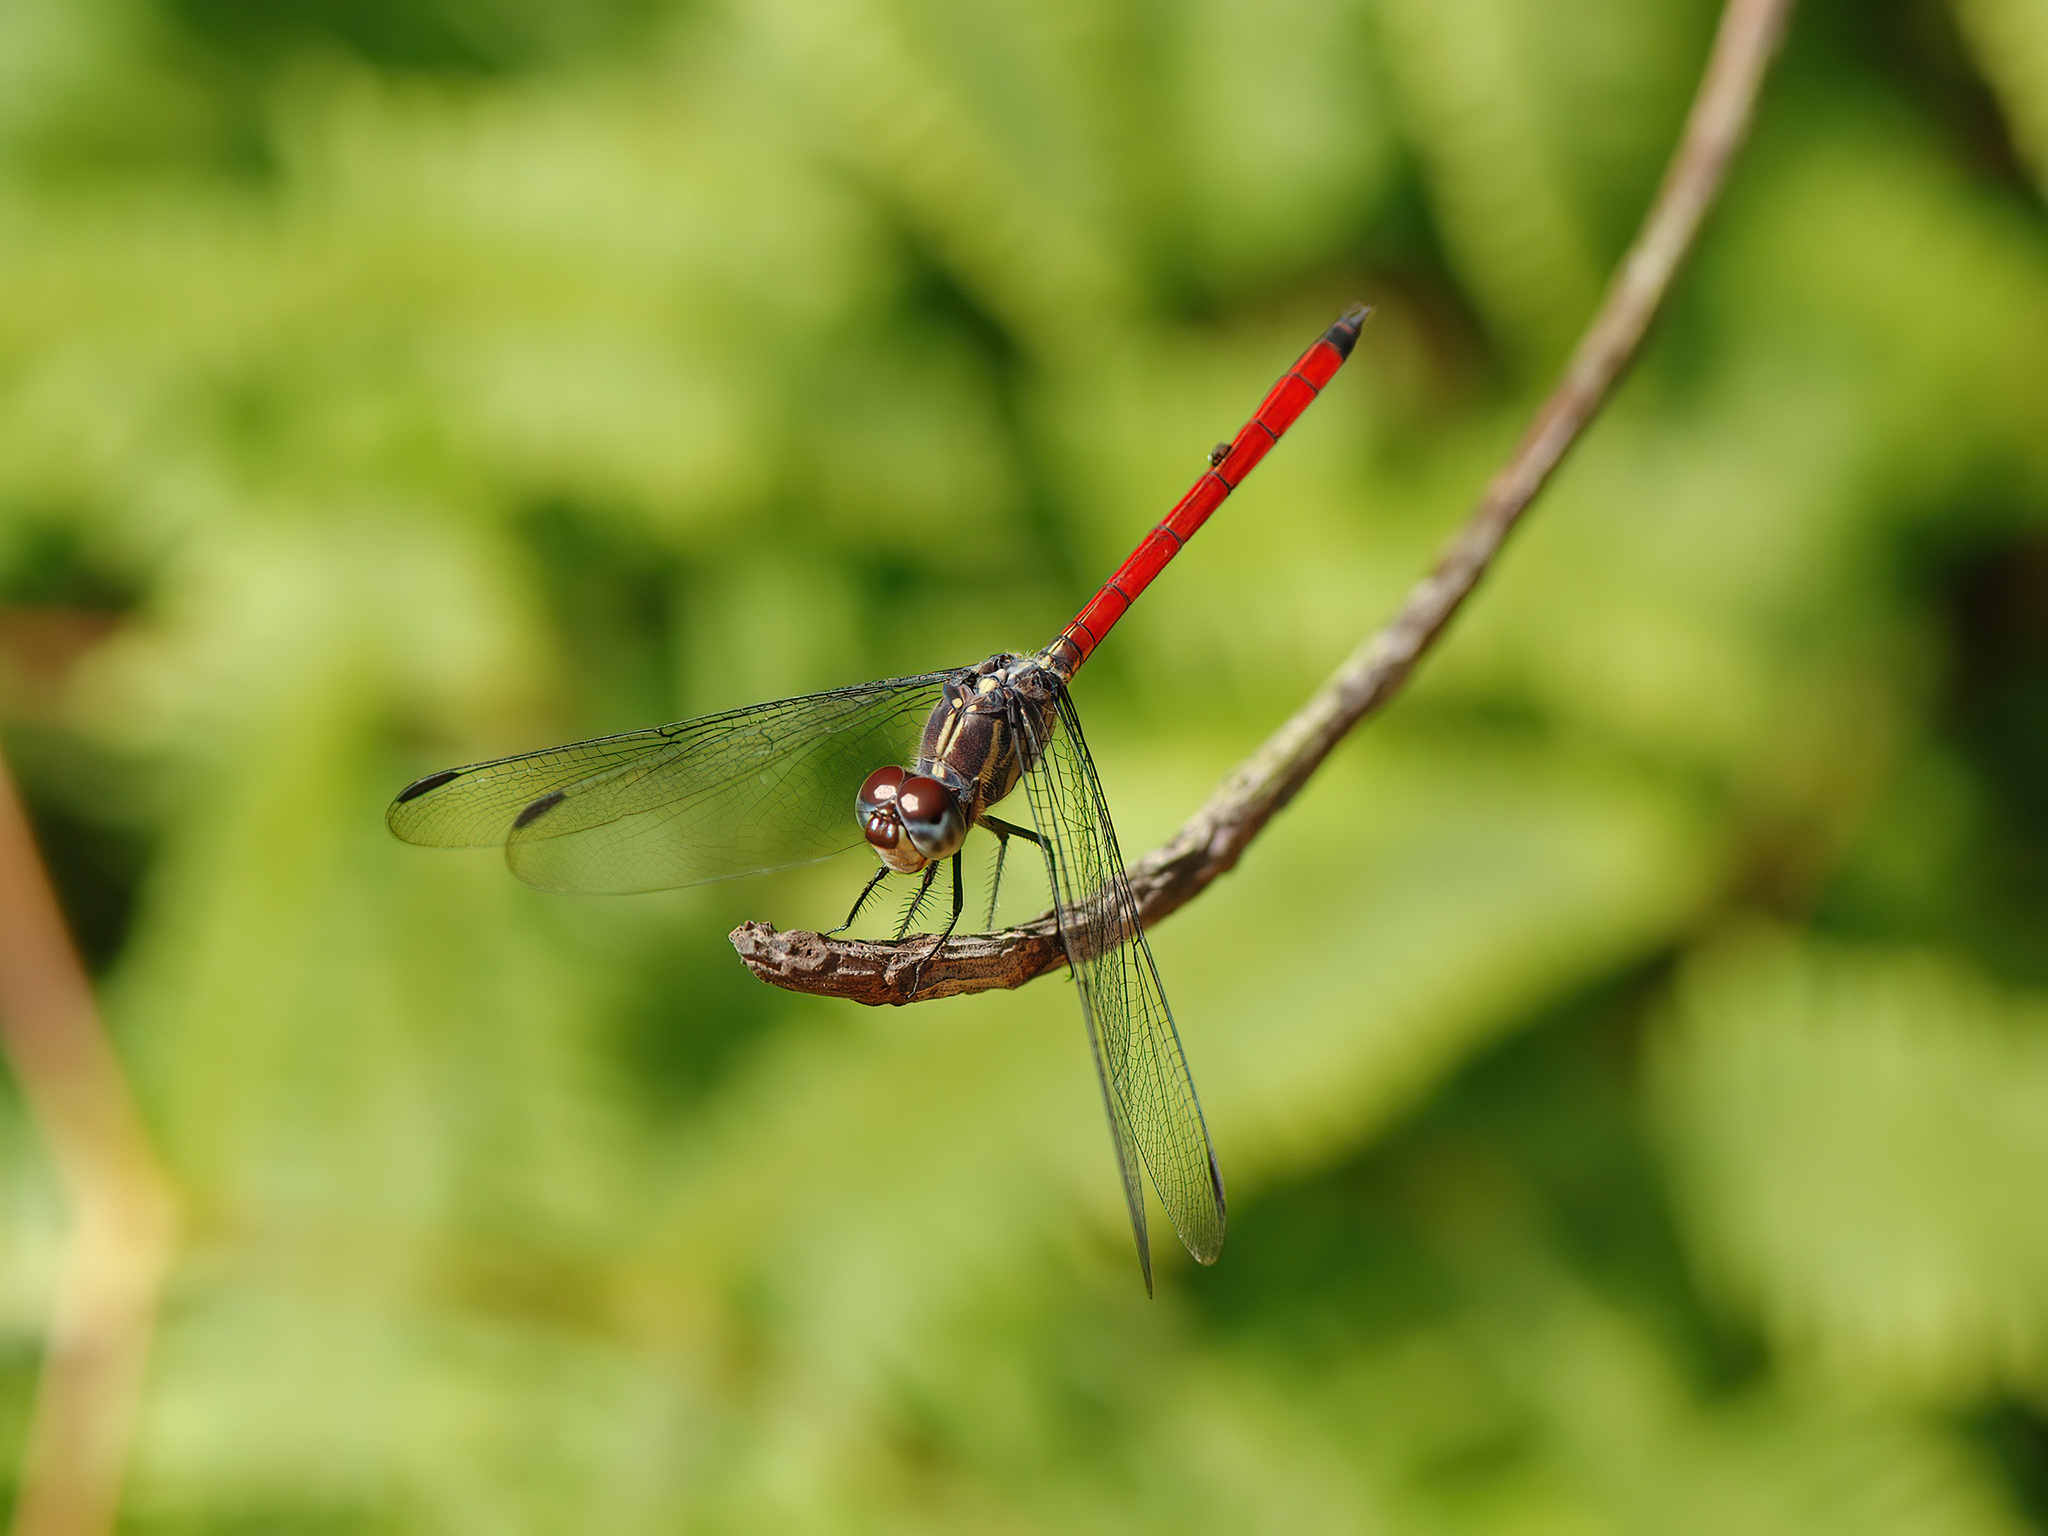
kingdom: Animalia
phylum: Arthropoda
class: Insecta
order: Odonata
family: Libellulidae
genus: Lathrecista
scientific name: Lathrecista asiatica
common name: Scarlet grenadier
